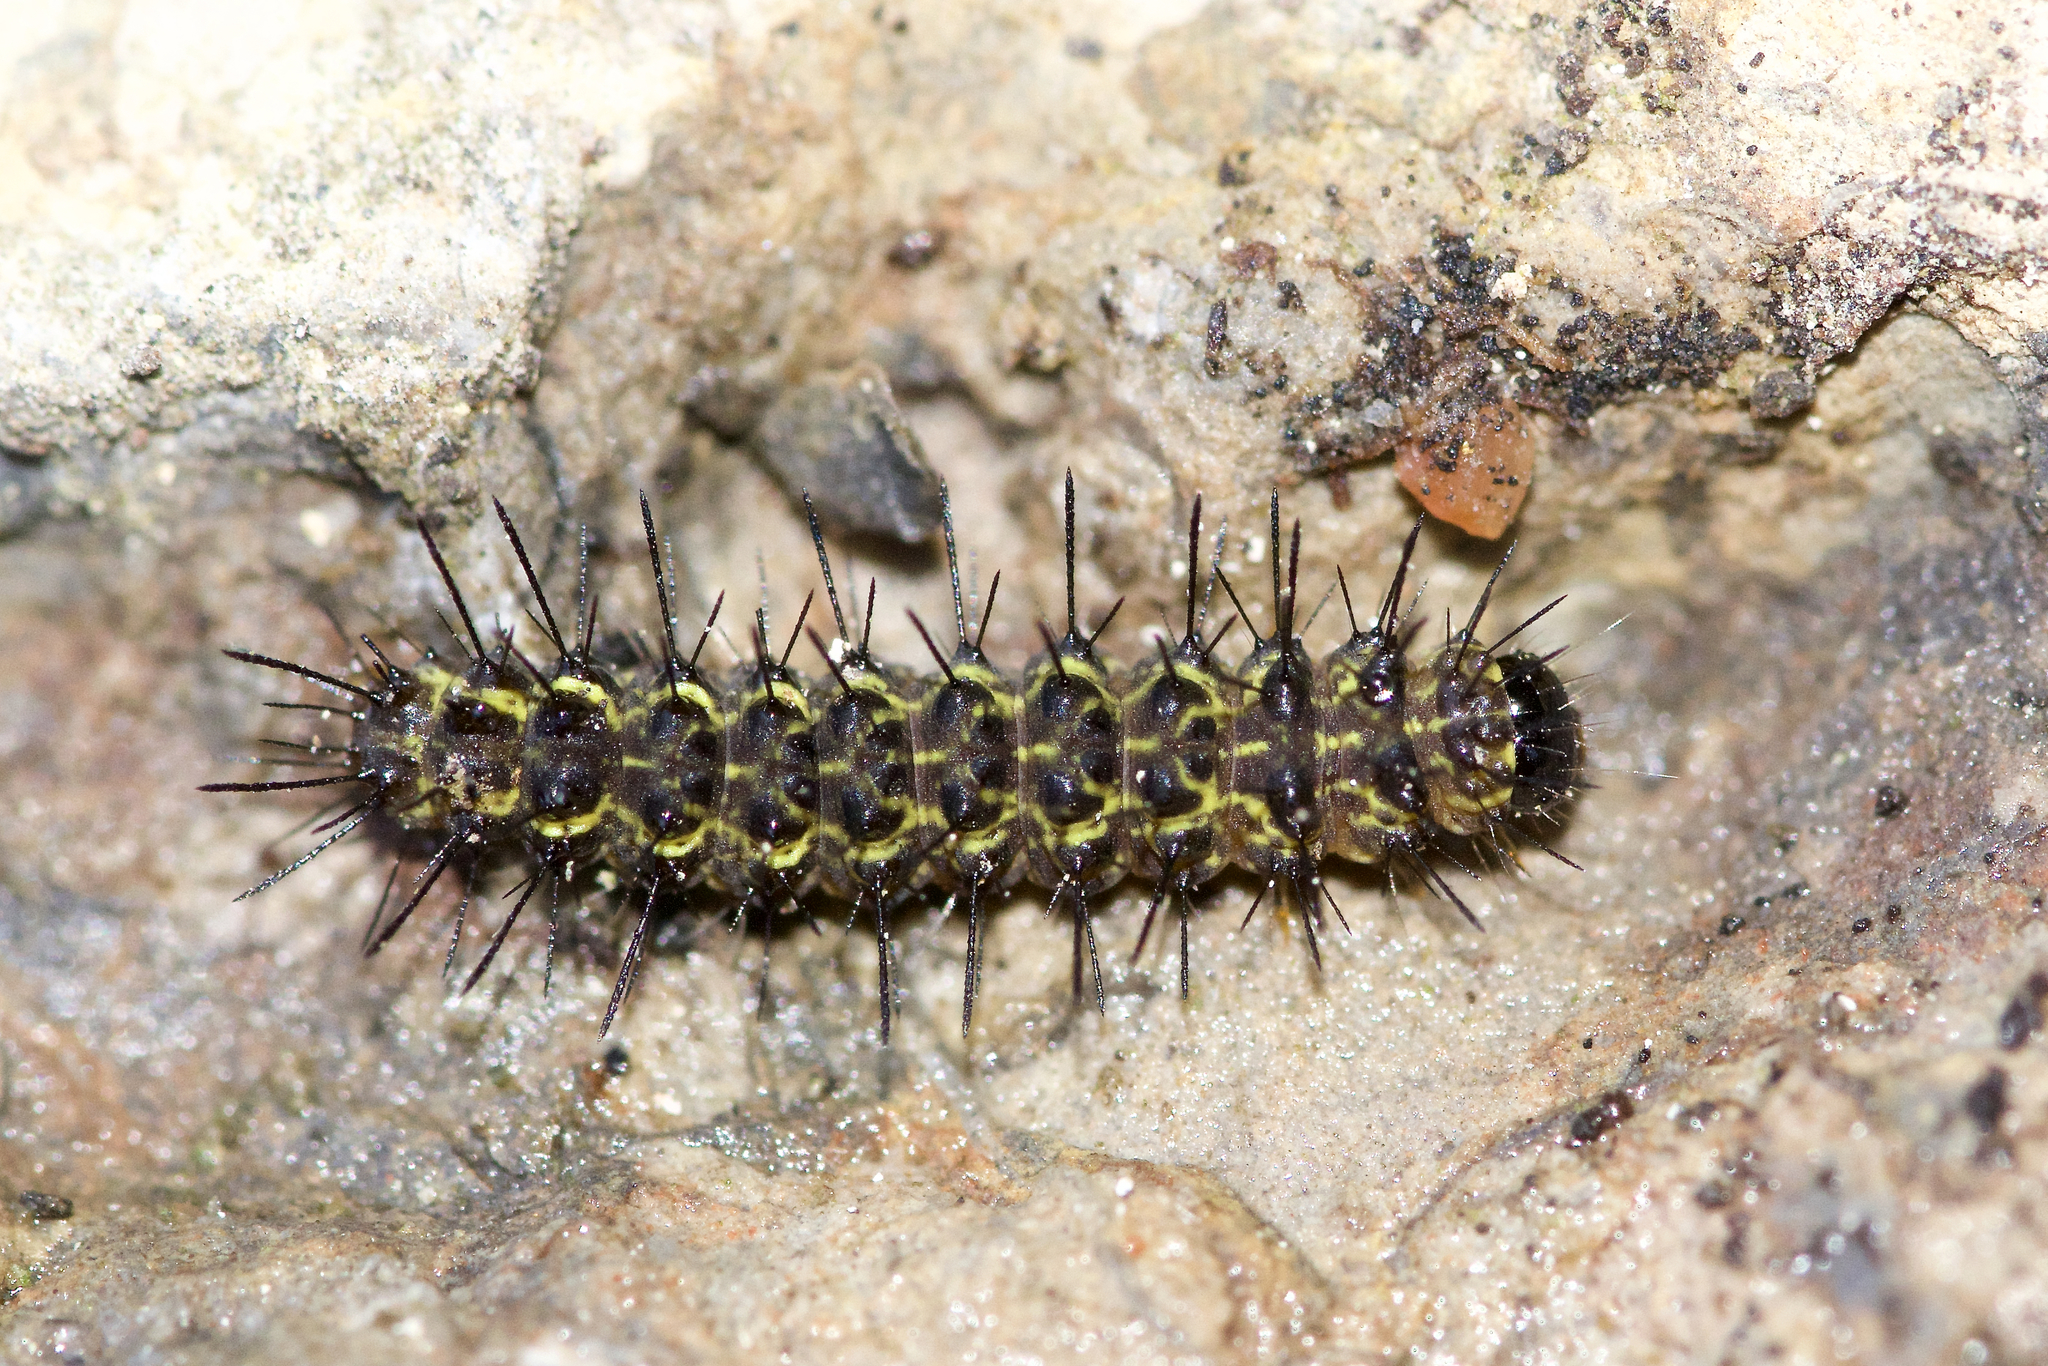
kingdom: Animalia
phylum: Arthropoda
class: Insecta
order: Lepidoptera
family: Erebidae
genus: Hypoprepia
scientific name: Hypoprepia miniata
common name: Scarlet-winged lichen moth
